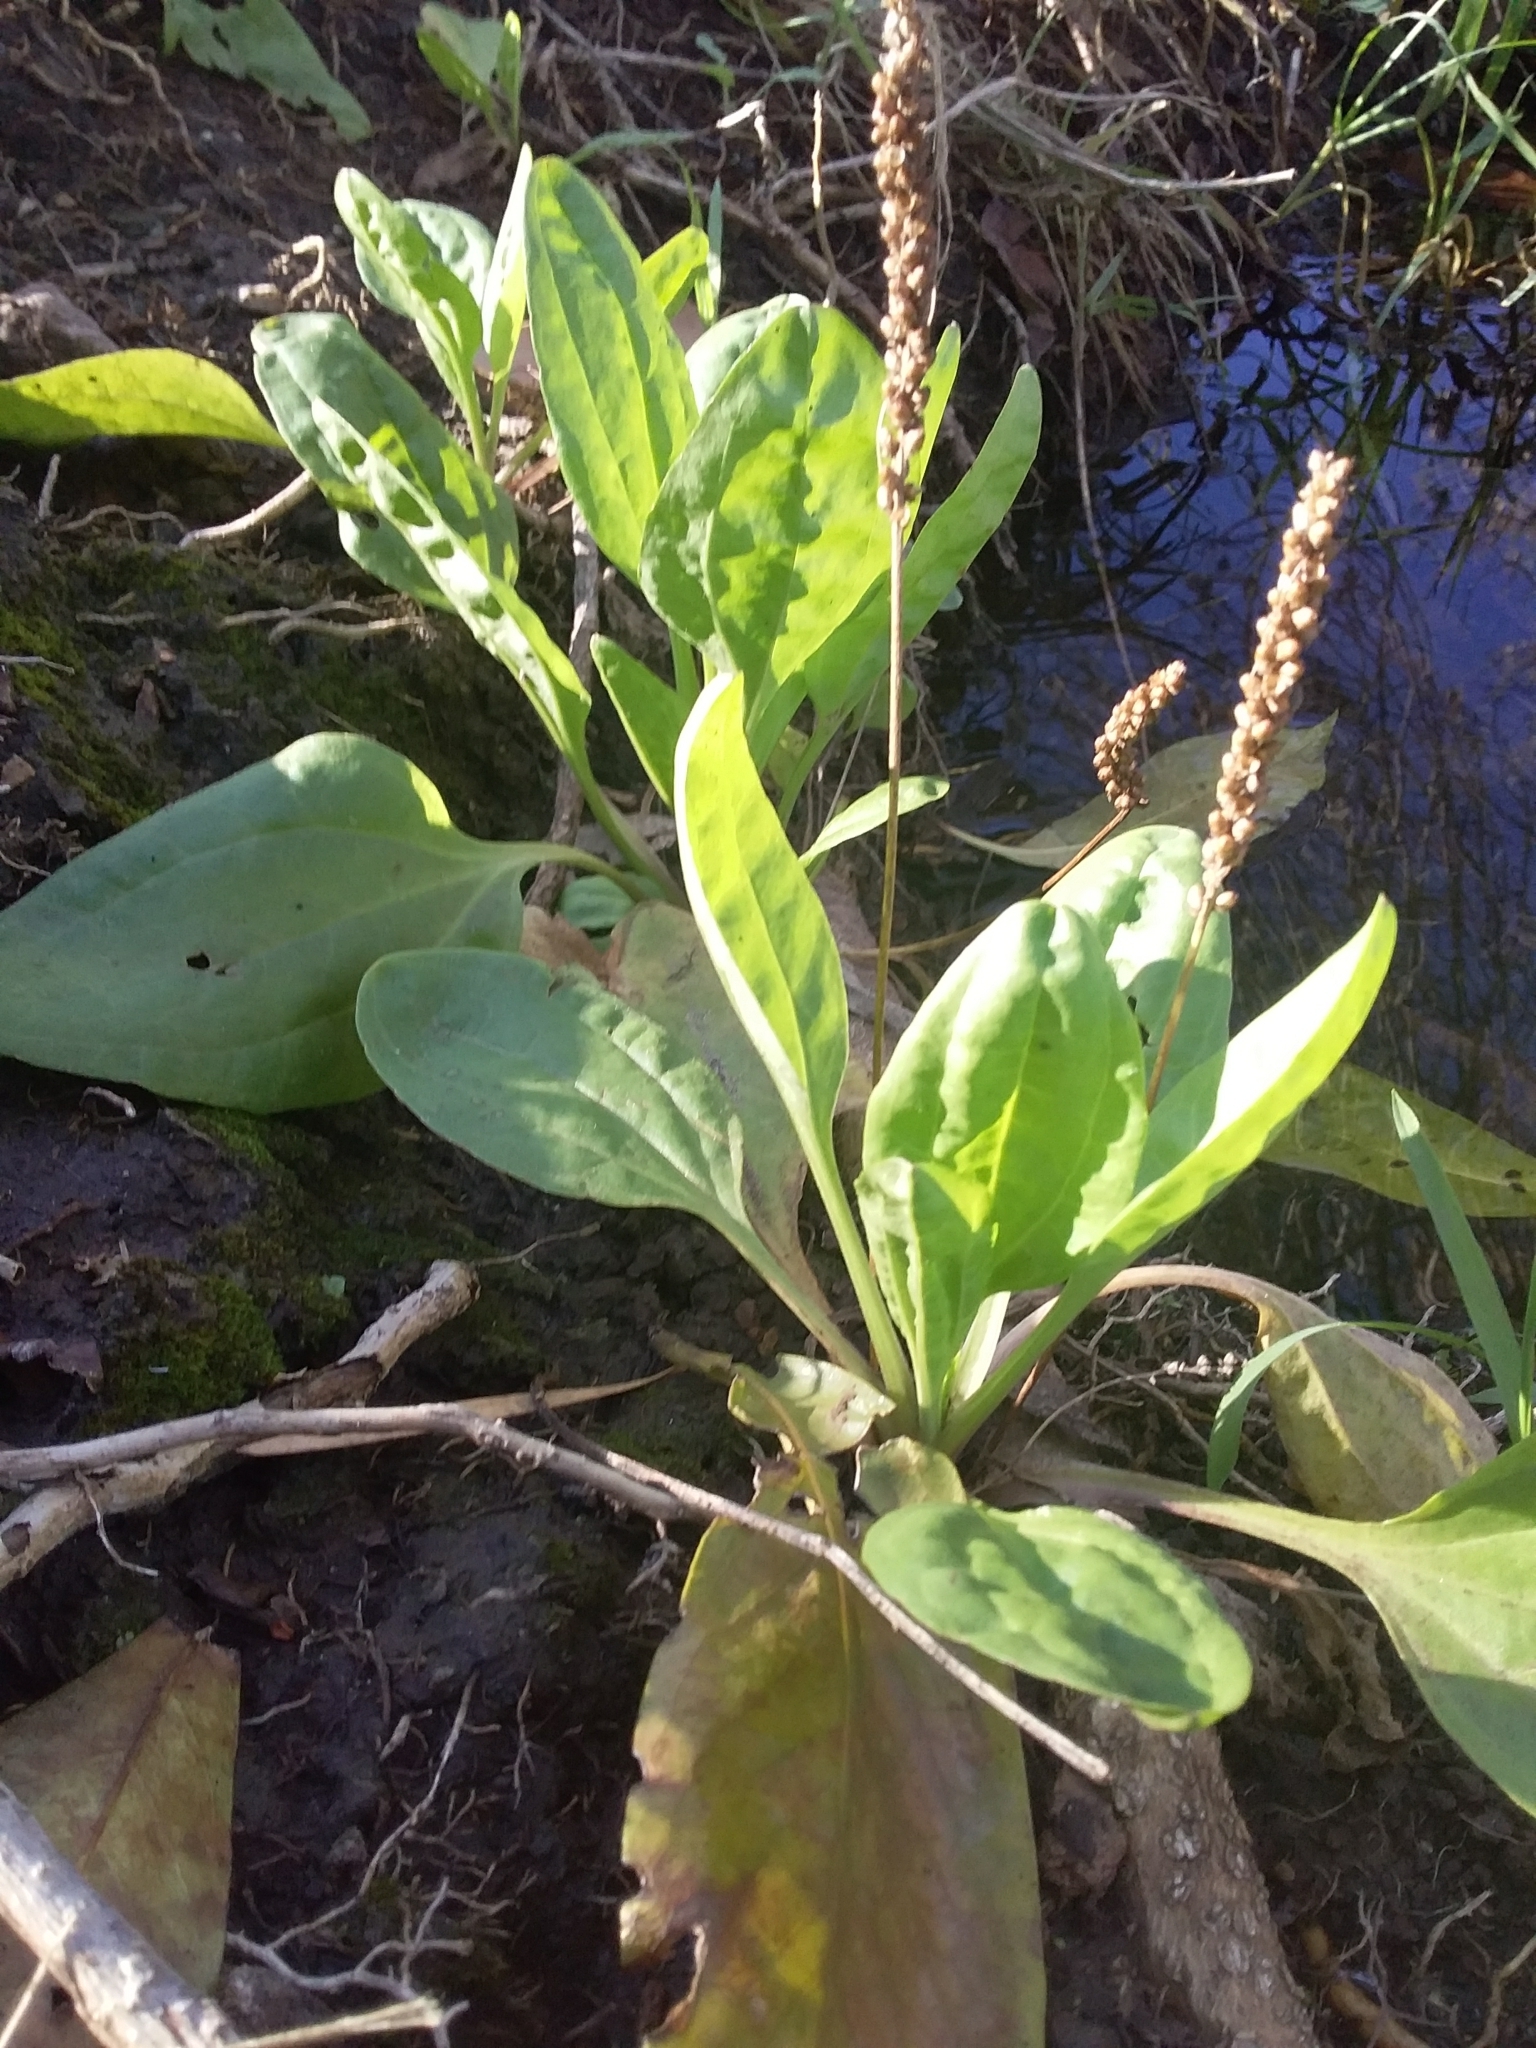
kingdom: Plantae
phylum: Tracheophyta
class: Magnoliopsida
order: Lamiales
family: Plantaginaceae
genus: Plantago
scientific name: Plantago major
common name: Common plantain
